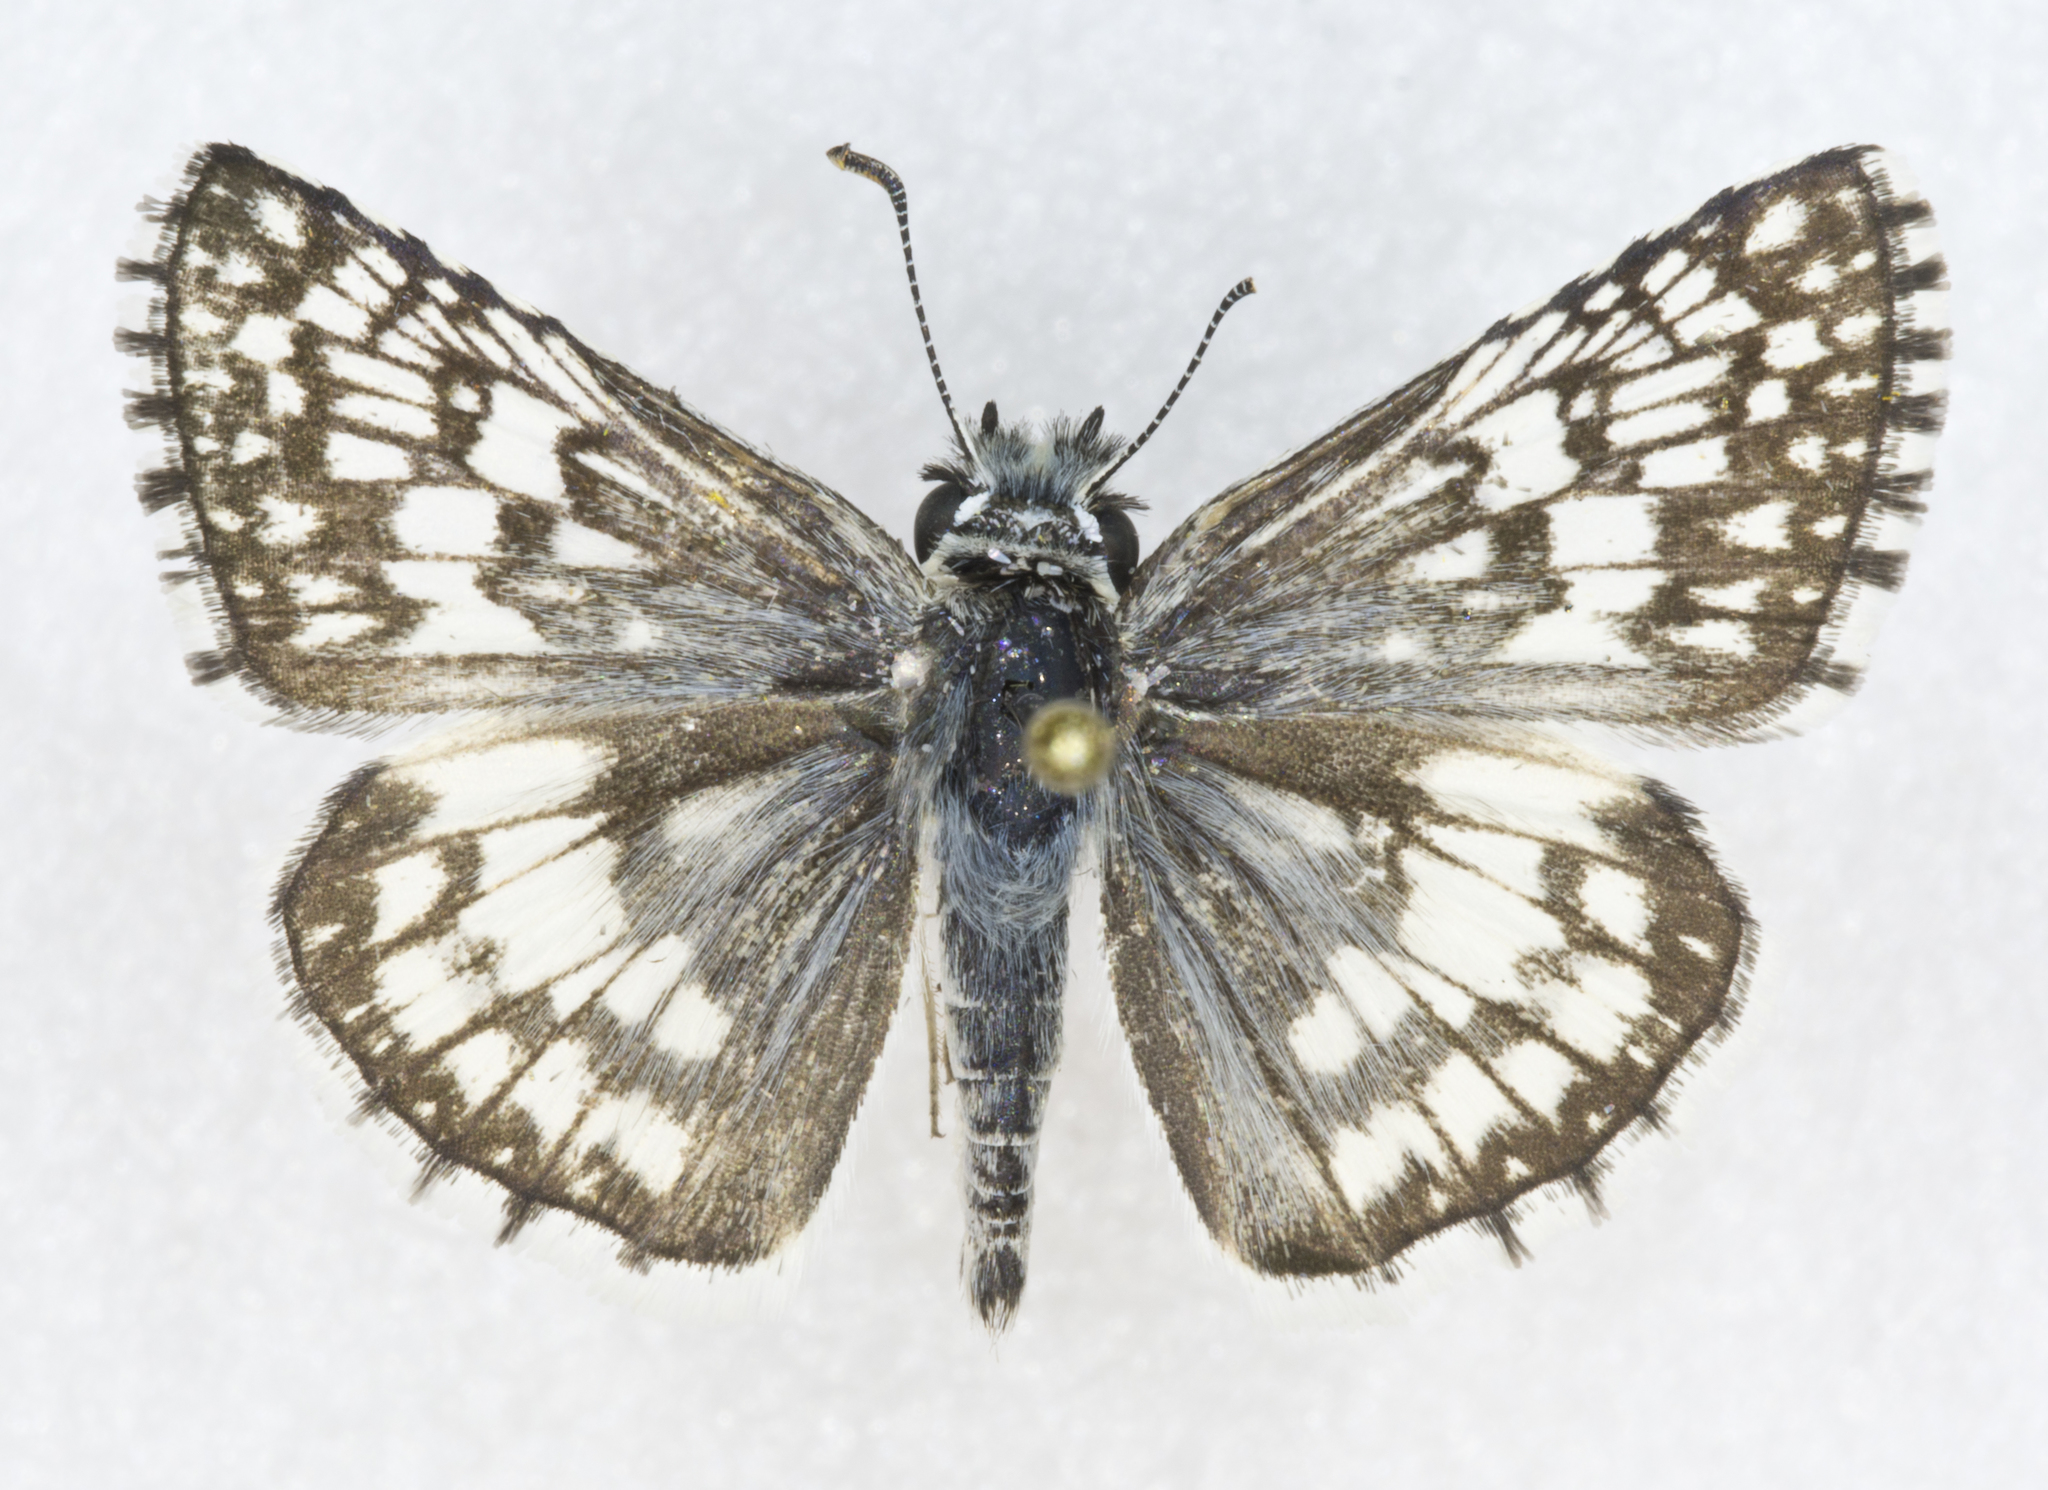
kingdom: Animalia
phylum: Arthropoda
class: Insecta
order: Lepidoptera
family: Hesperiidae
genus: Burnsius
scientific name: Burnsius
